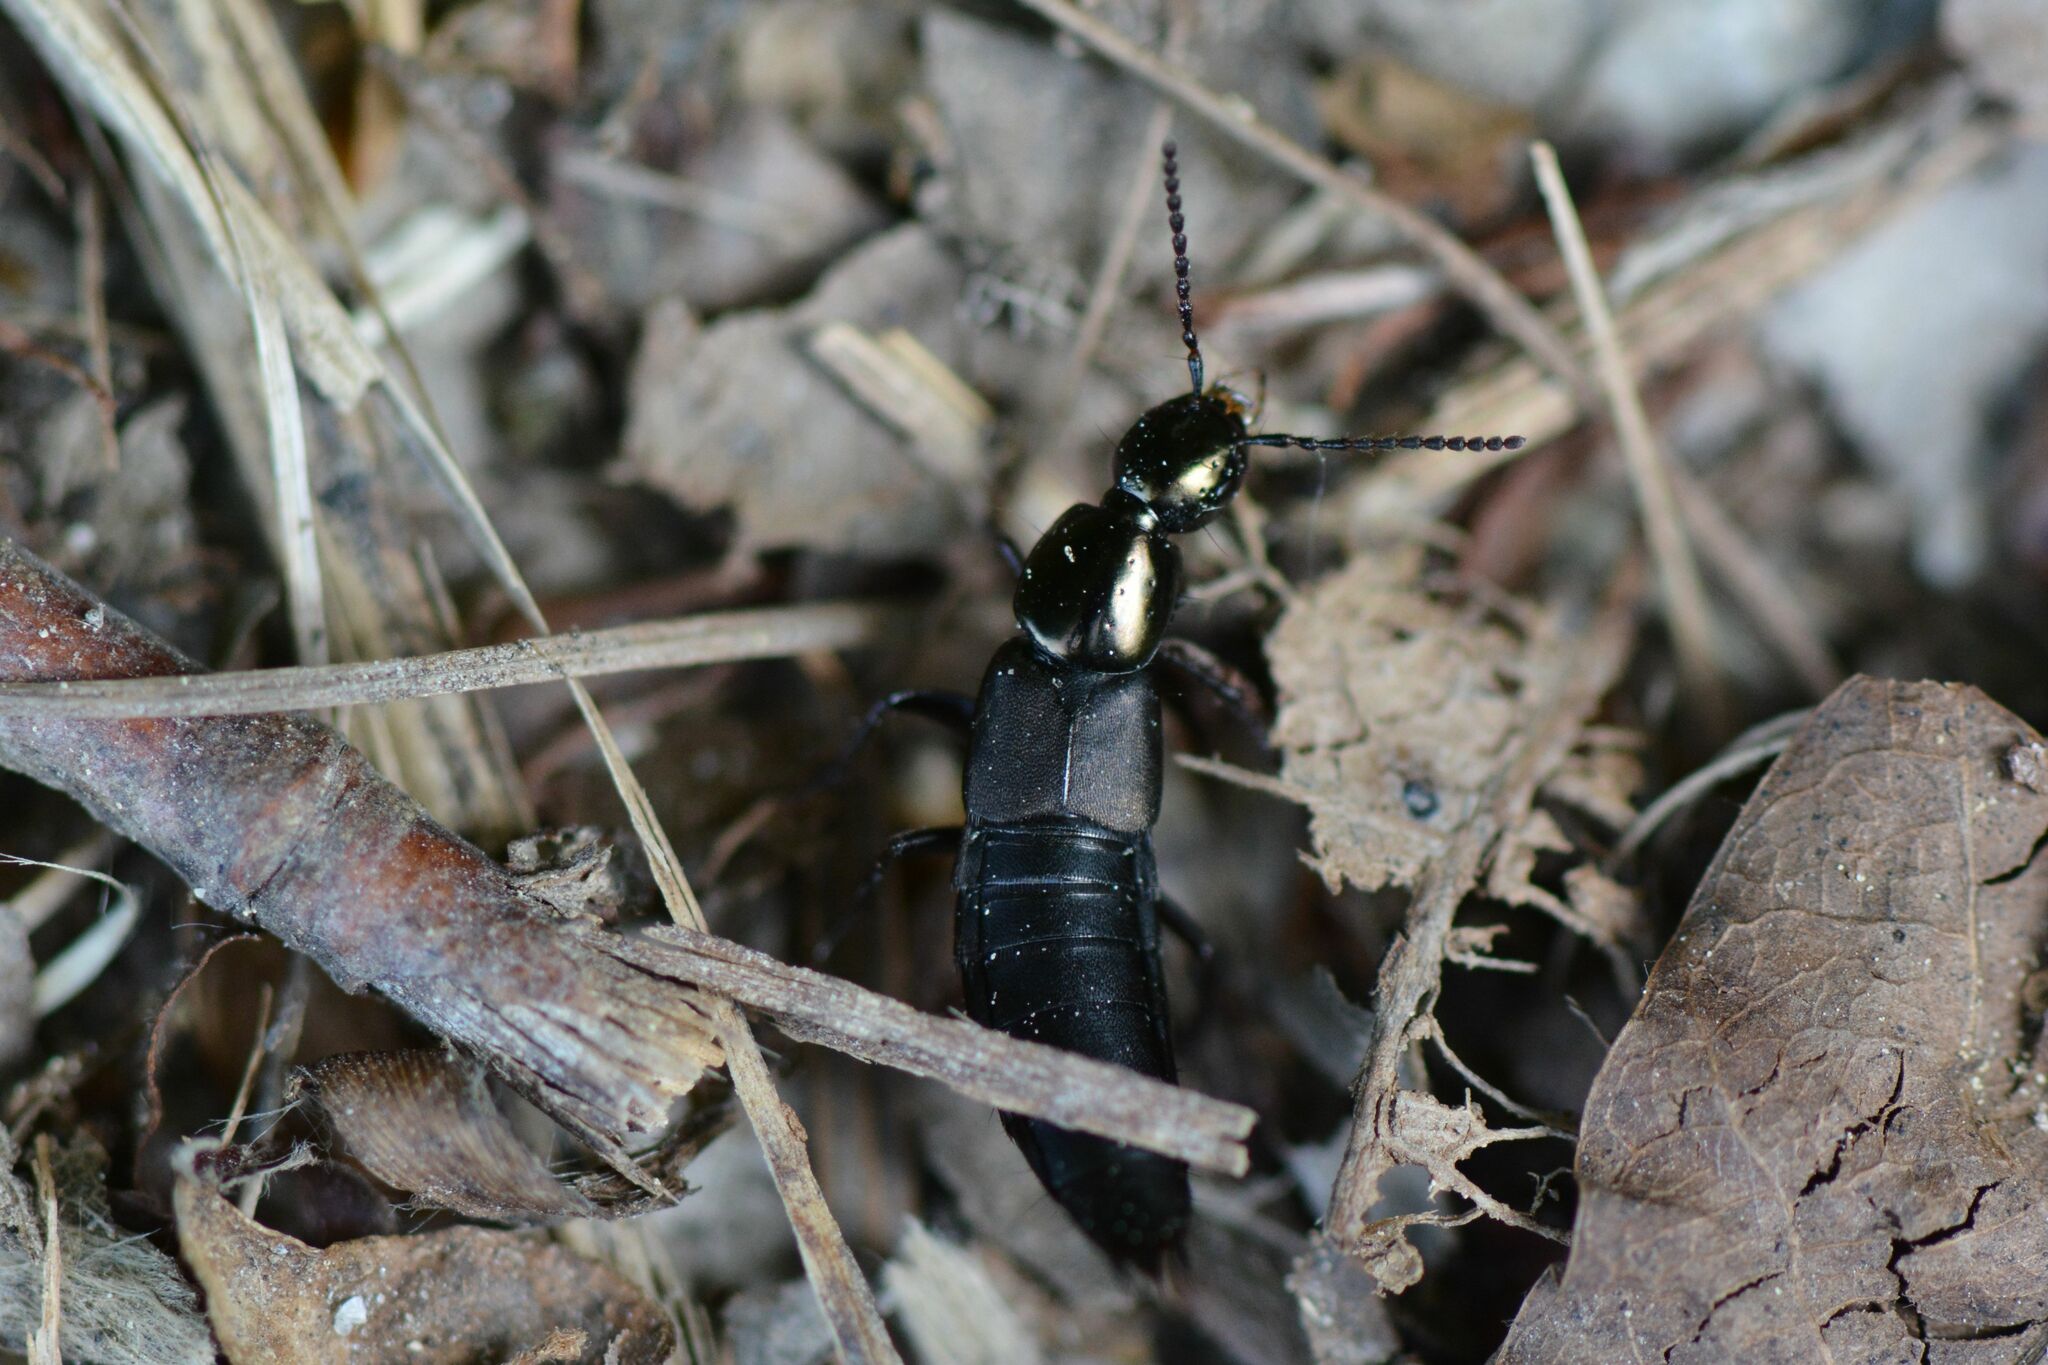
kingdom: Animalia
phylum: Arthropoda
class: Insecta
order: Coleoptera
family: Staphylinidae
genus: Philonthus
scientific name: Philonthus decorus
